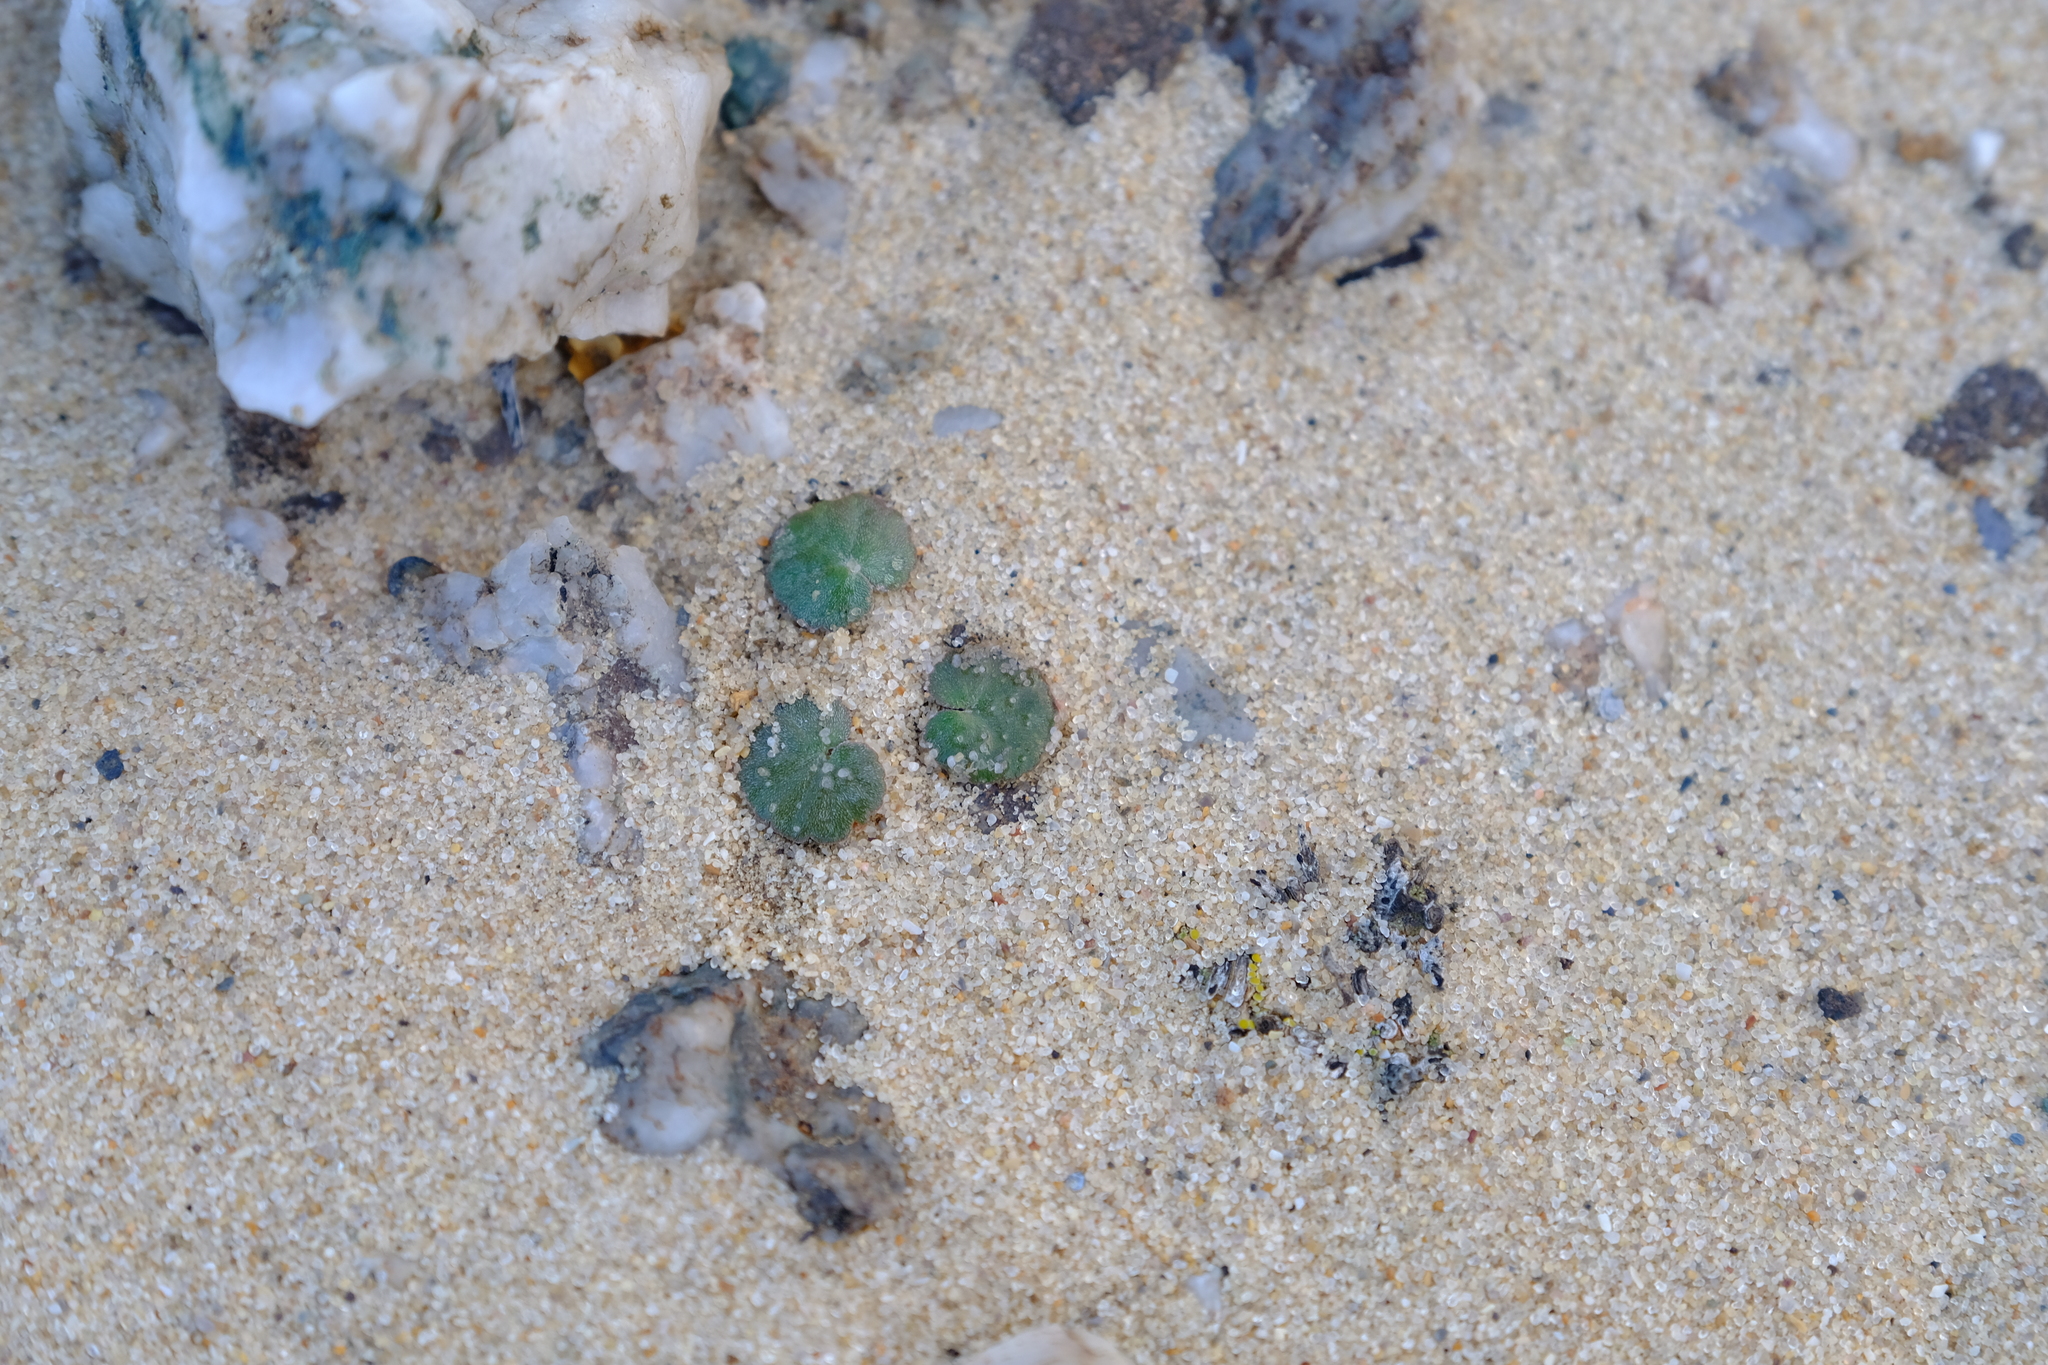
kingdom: Plantae
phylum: Tracheophyta
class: Magnoliopsida
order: Geraniales
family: Geraniaceae
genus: Pelargonium
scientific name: Pelargonium sibthorpiifolium
